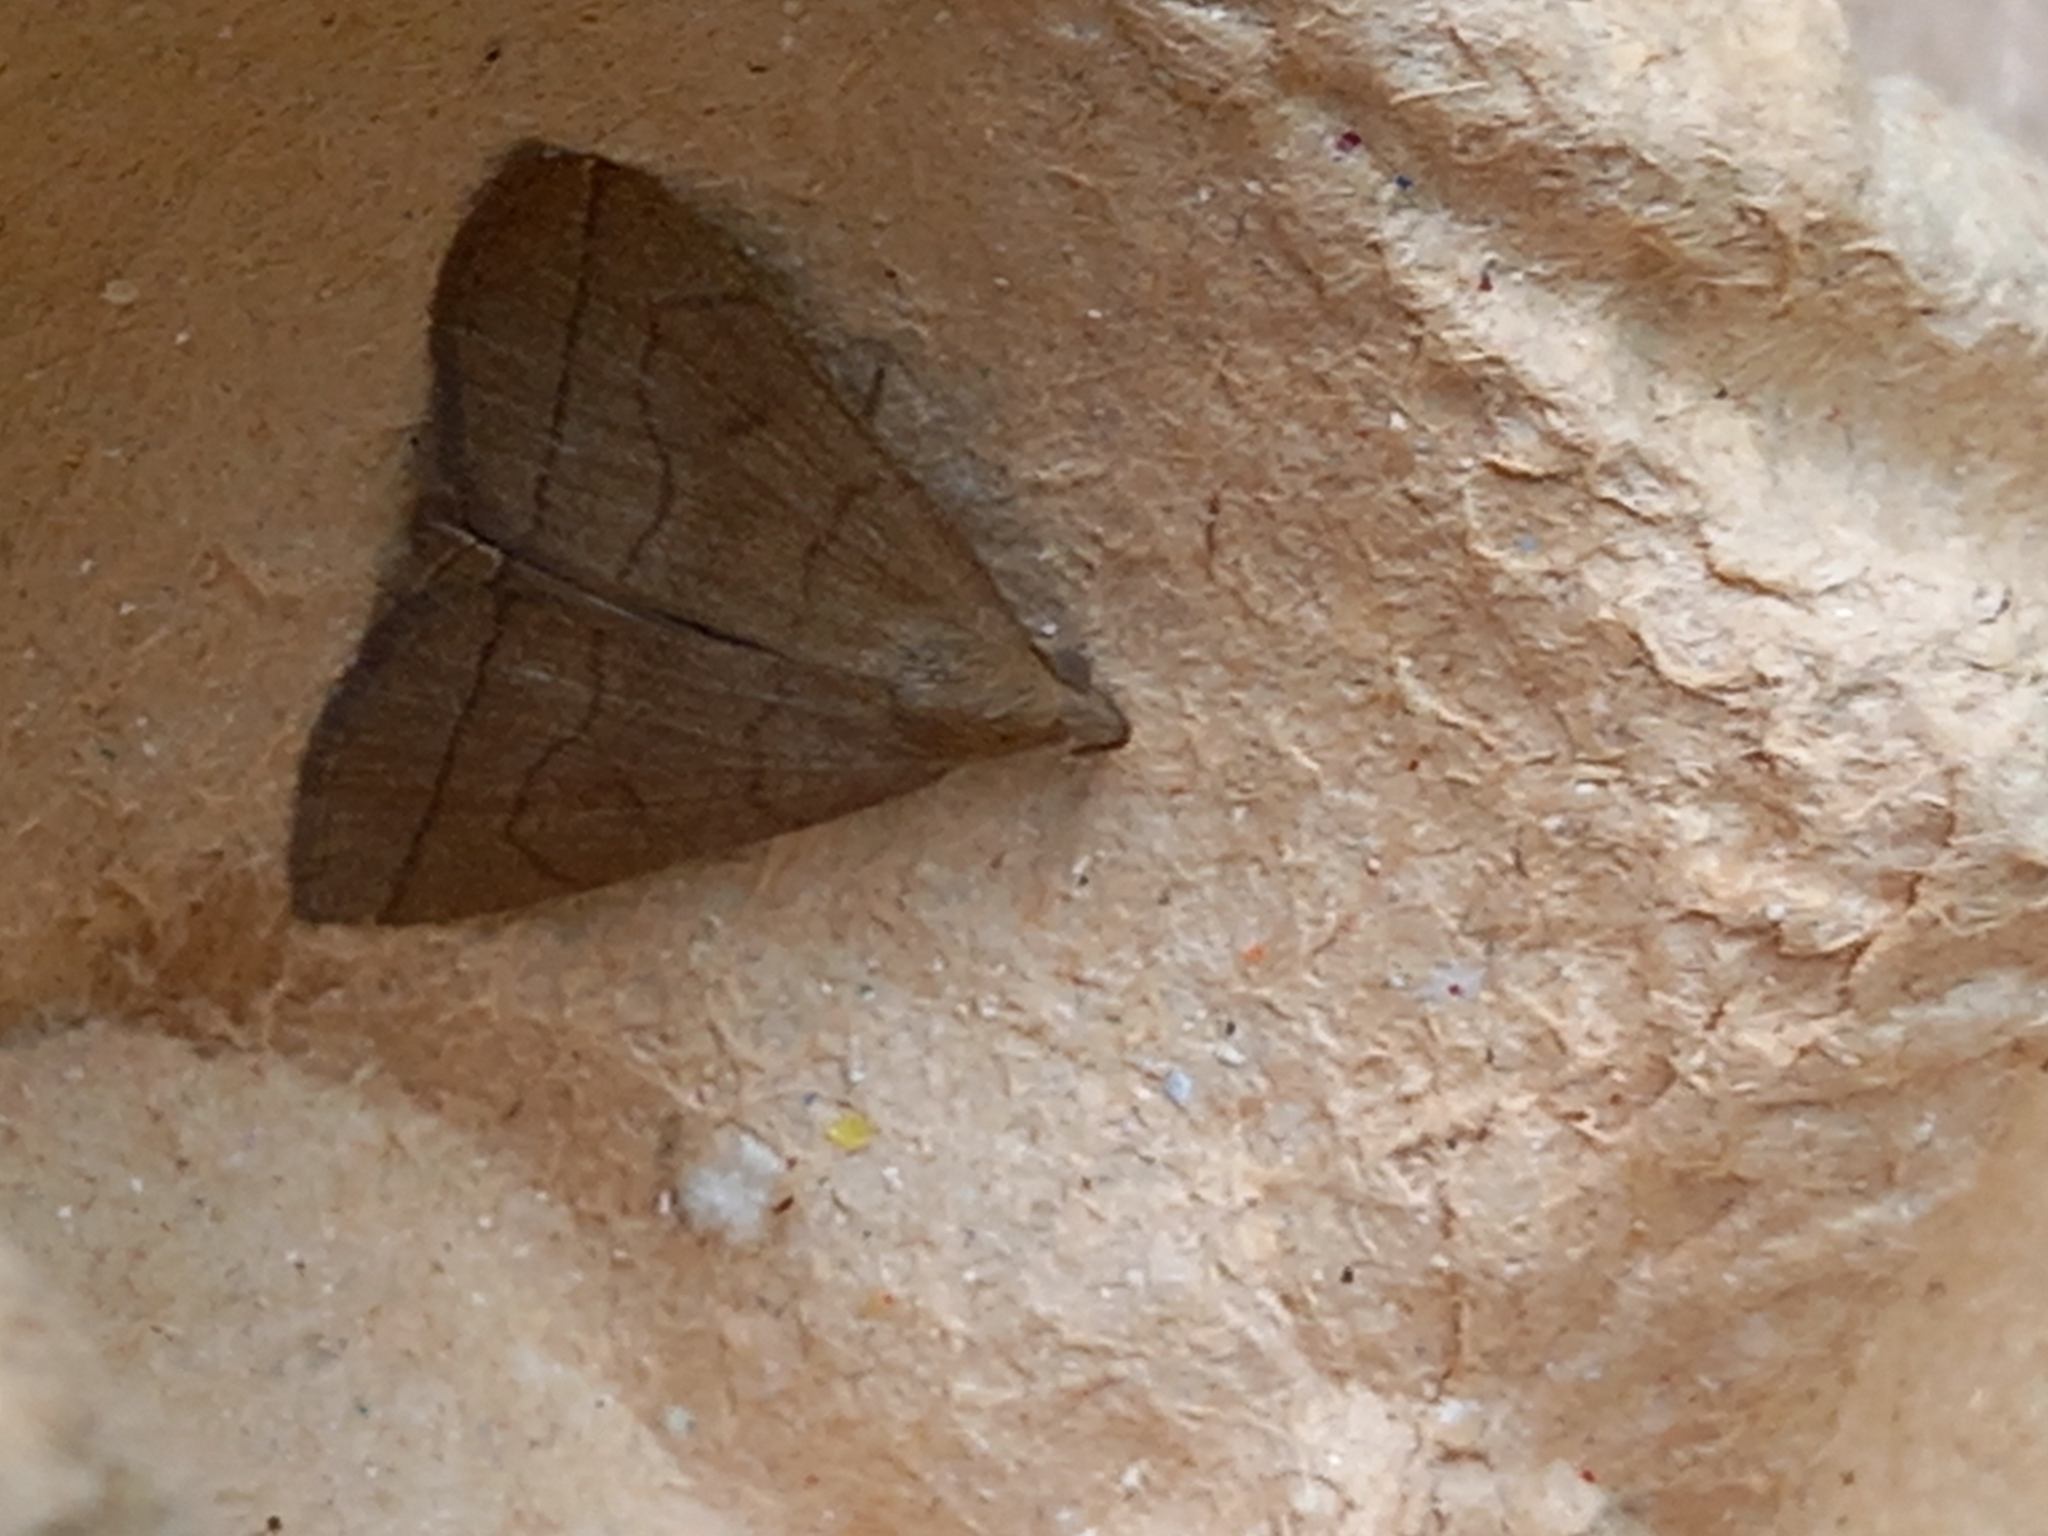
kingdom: Animalia
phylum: Arthropoda
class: Insecta
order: Lepidoptera
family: Erebidae
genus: Herminia
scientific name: Herminia tarsipennalis
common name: Fan-foot
